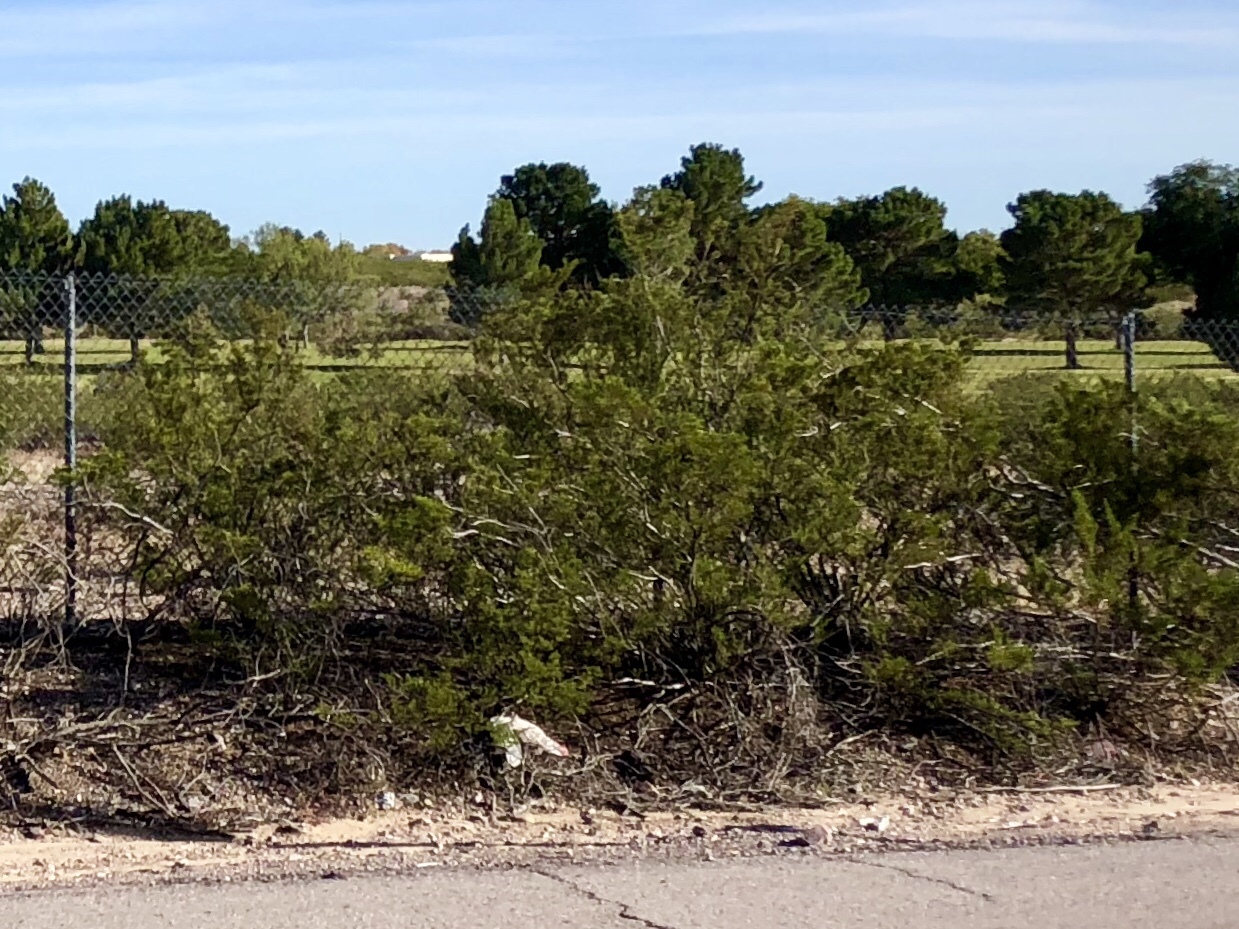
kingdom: Plantae
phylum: Tracheophyta
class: Magnoliopsida
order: Zygophyllales
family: Zygophyllaceae
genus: Larrea
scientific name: Larrea tridentata
